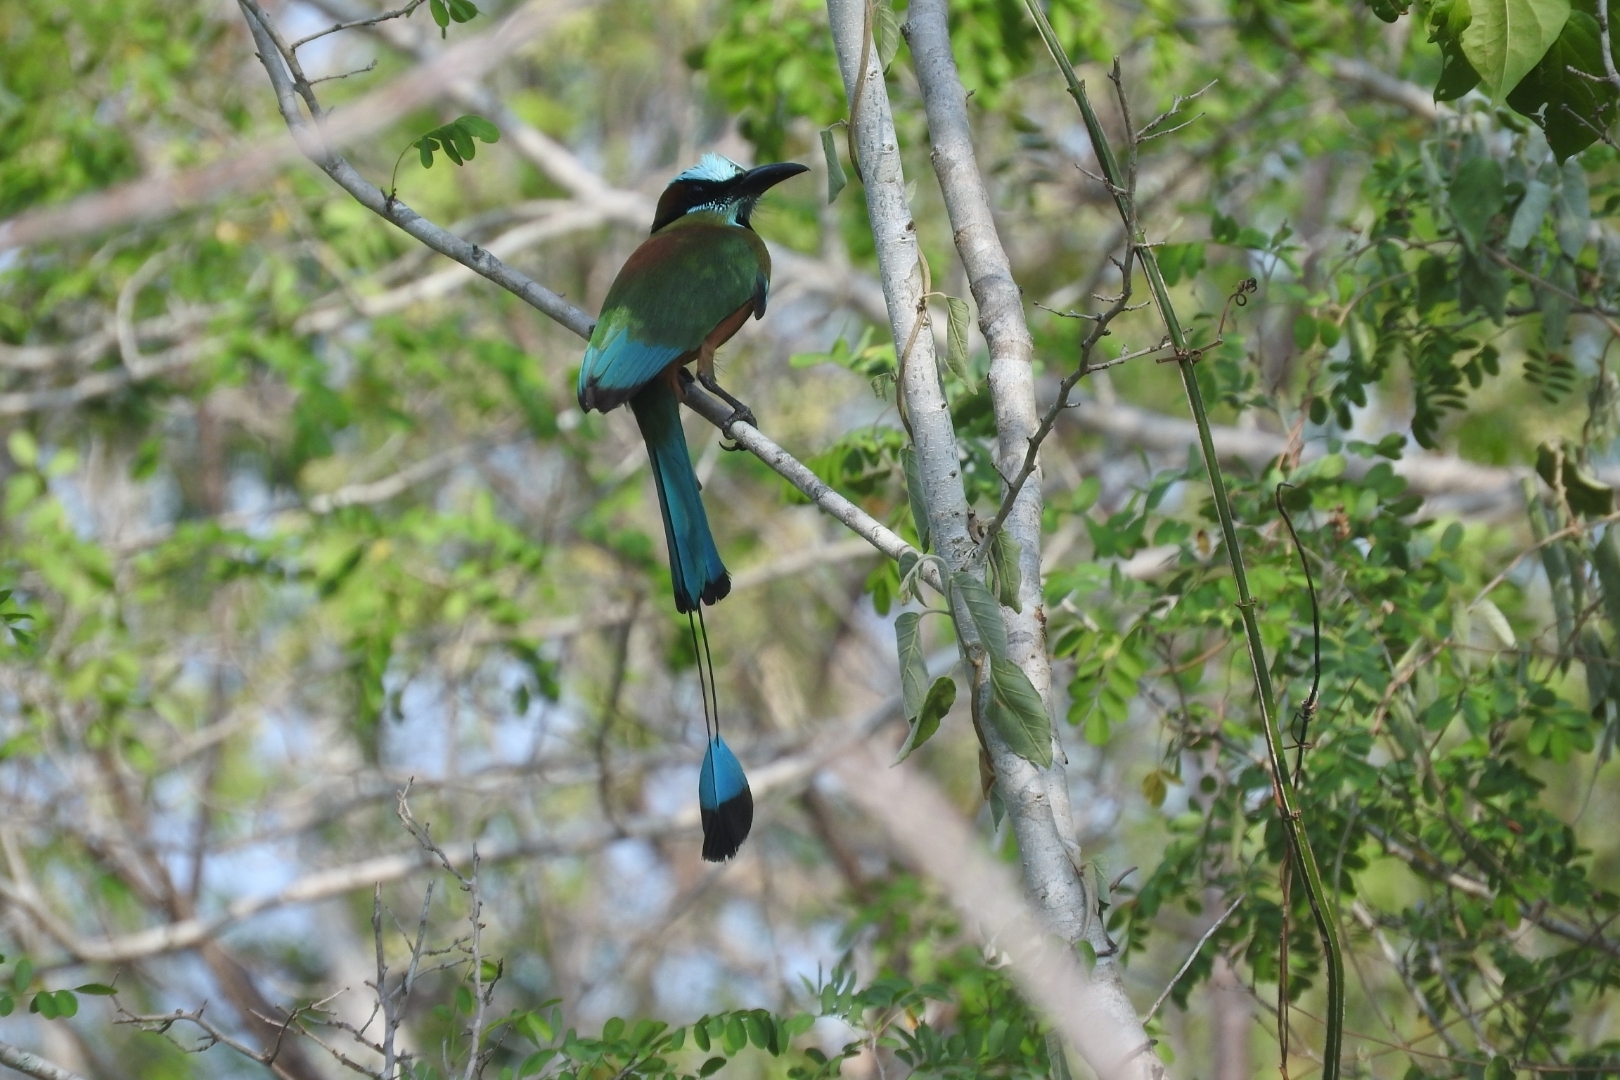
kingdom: Animalia
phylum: Chordata
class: Aves
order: Coraciiformes
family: Momotidae
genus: Eumomota
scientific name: Eumomota superciliosa
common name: Turquoise-browed motmot
